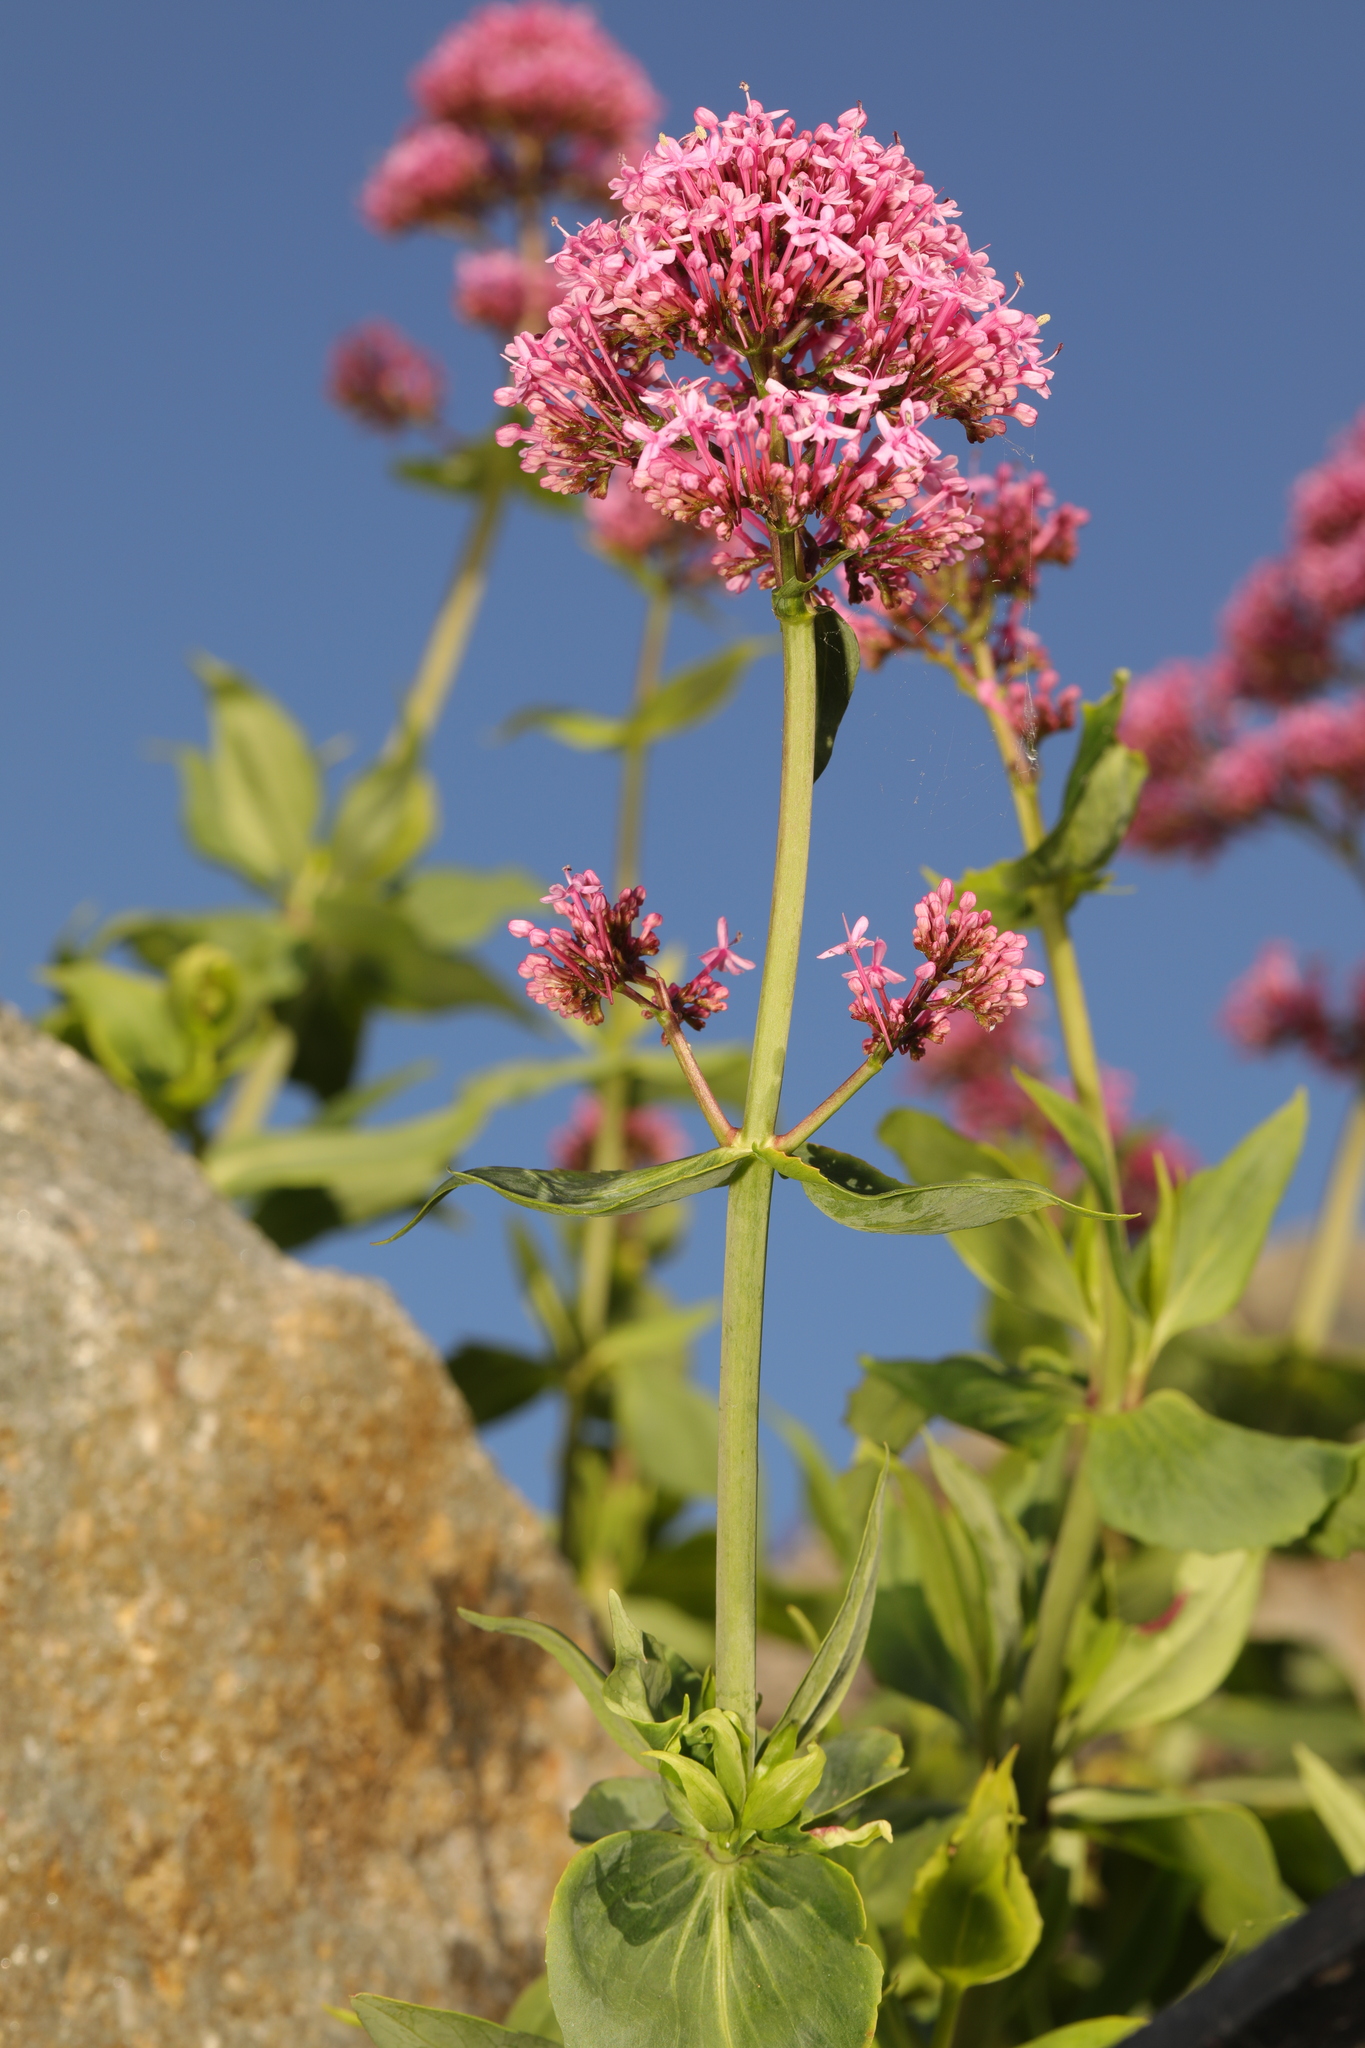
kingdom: Plantae
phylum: Tracheophyta
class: Magnoliopsida
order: Dipsacales
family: Caprifoliaceae
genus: Centranthus
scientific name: Centranthus ruber
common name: Red valerian
